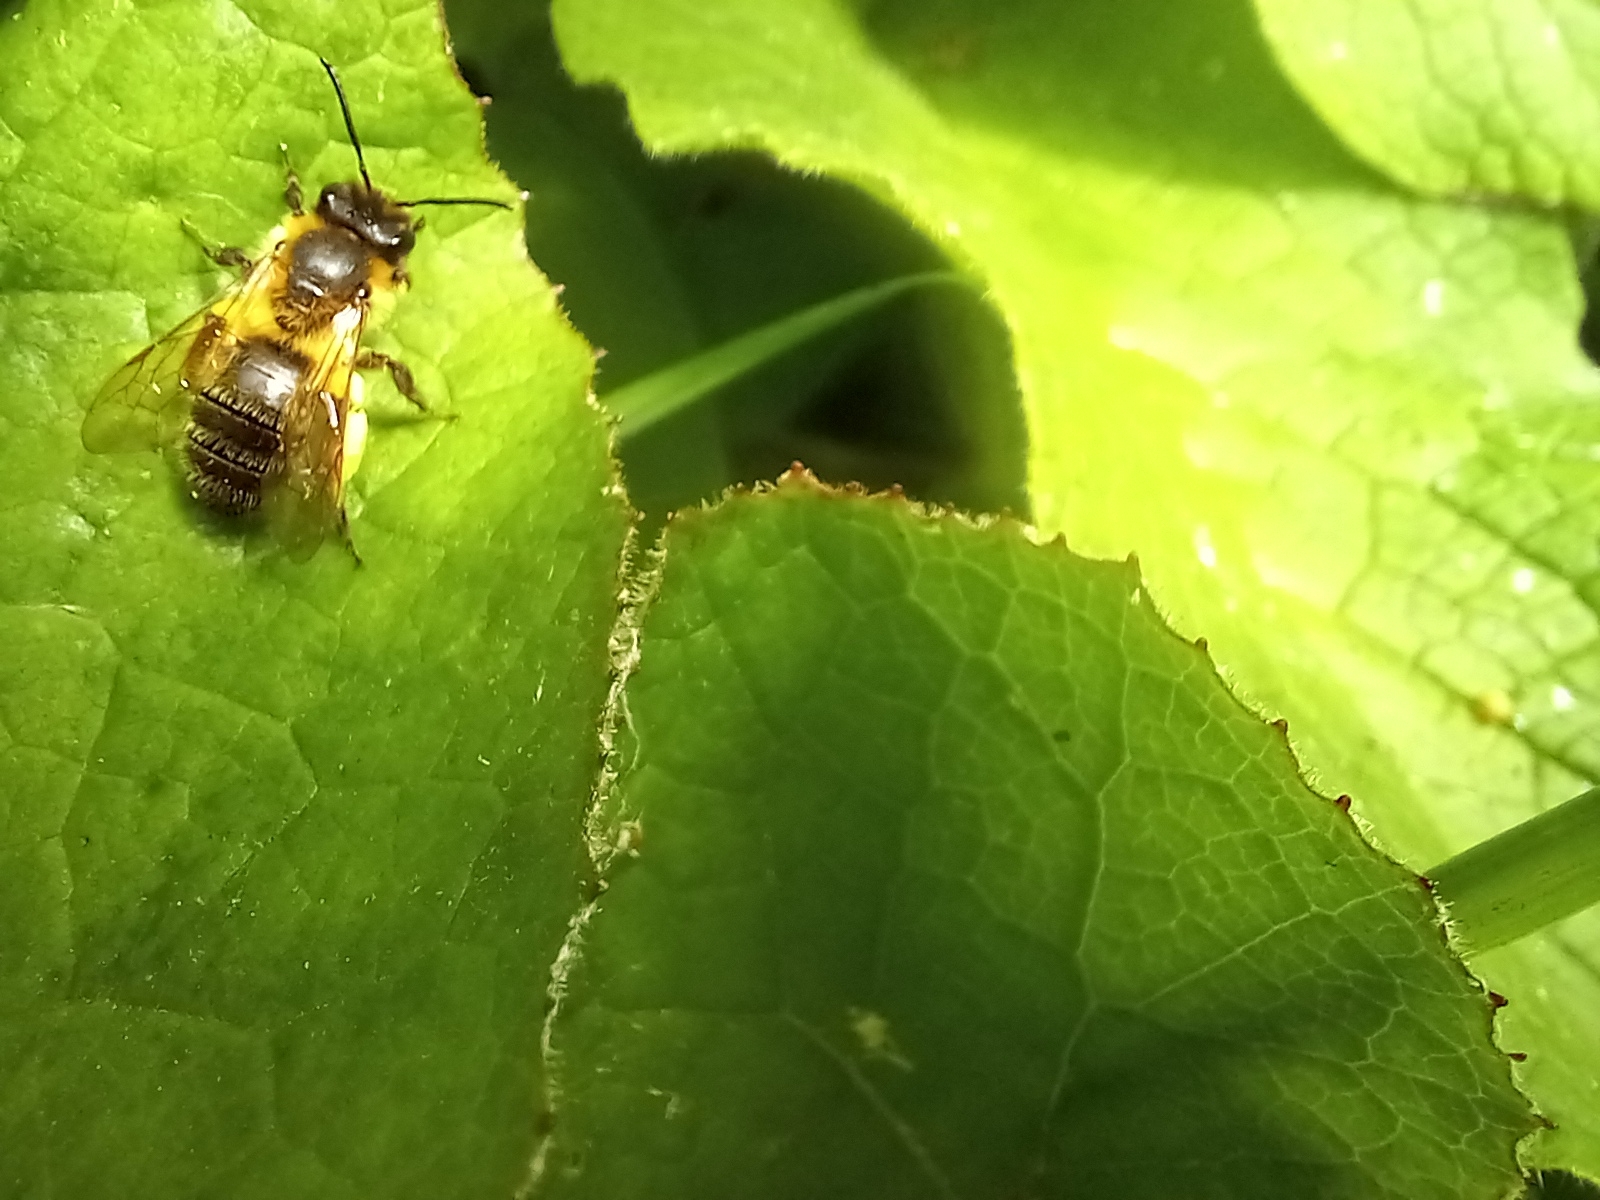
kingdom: Animalia
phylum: Arthropoda
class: Insecta
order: Hymenoptera
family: Andrenidae
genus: Andrena
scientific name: Andrena carantonica
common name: Chocolate mining bee
